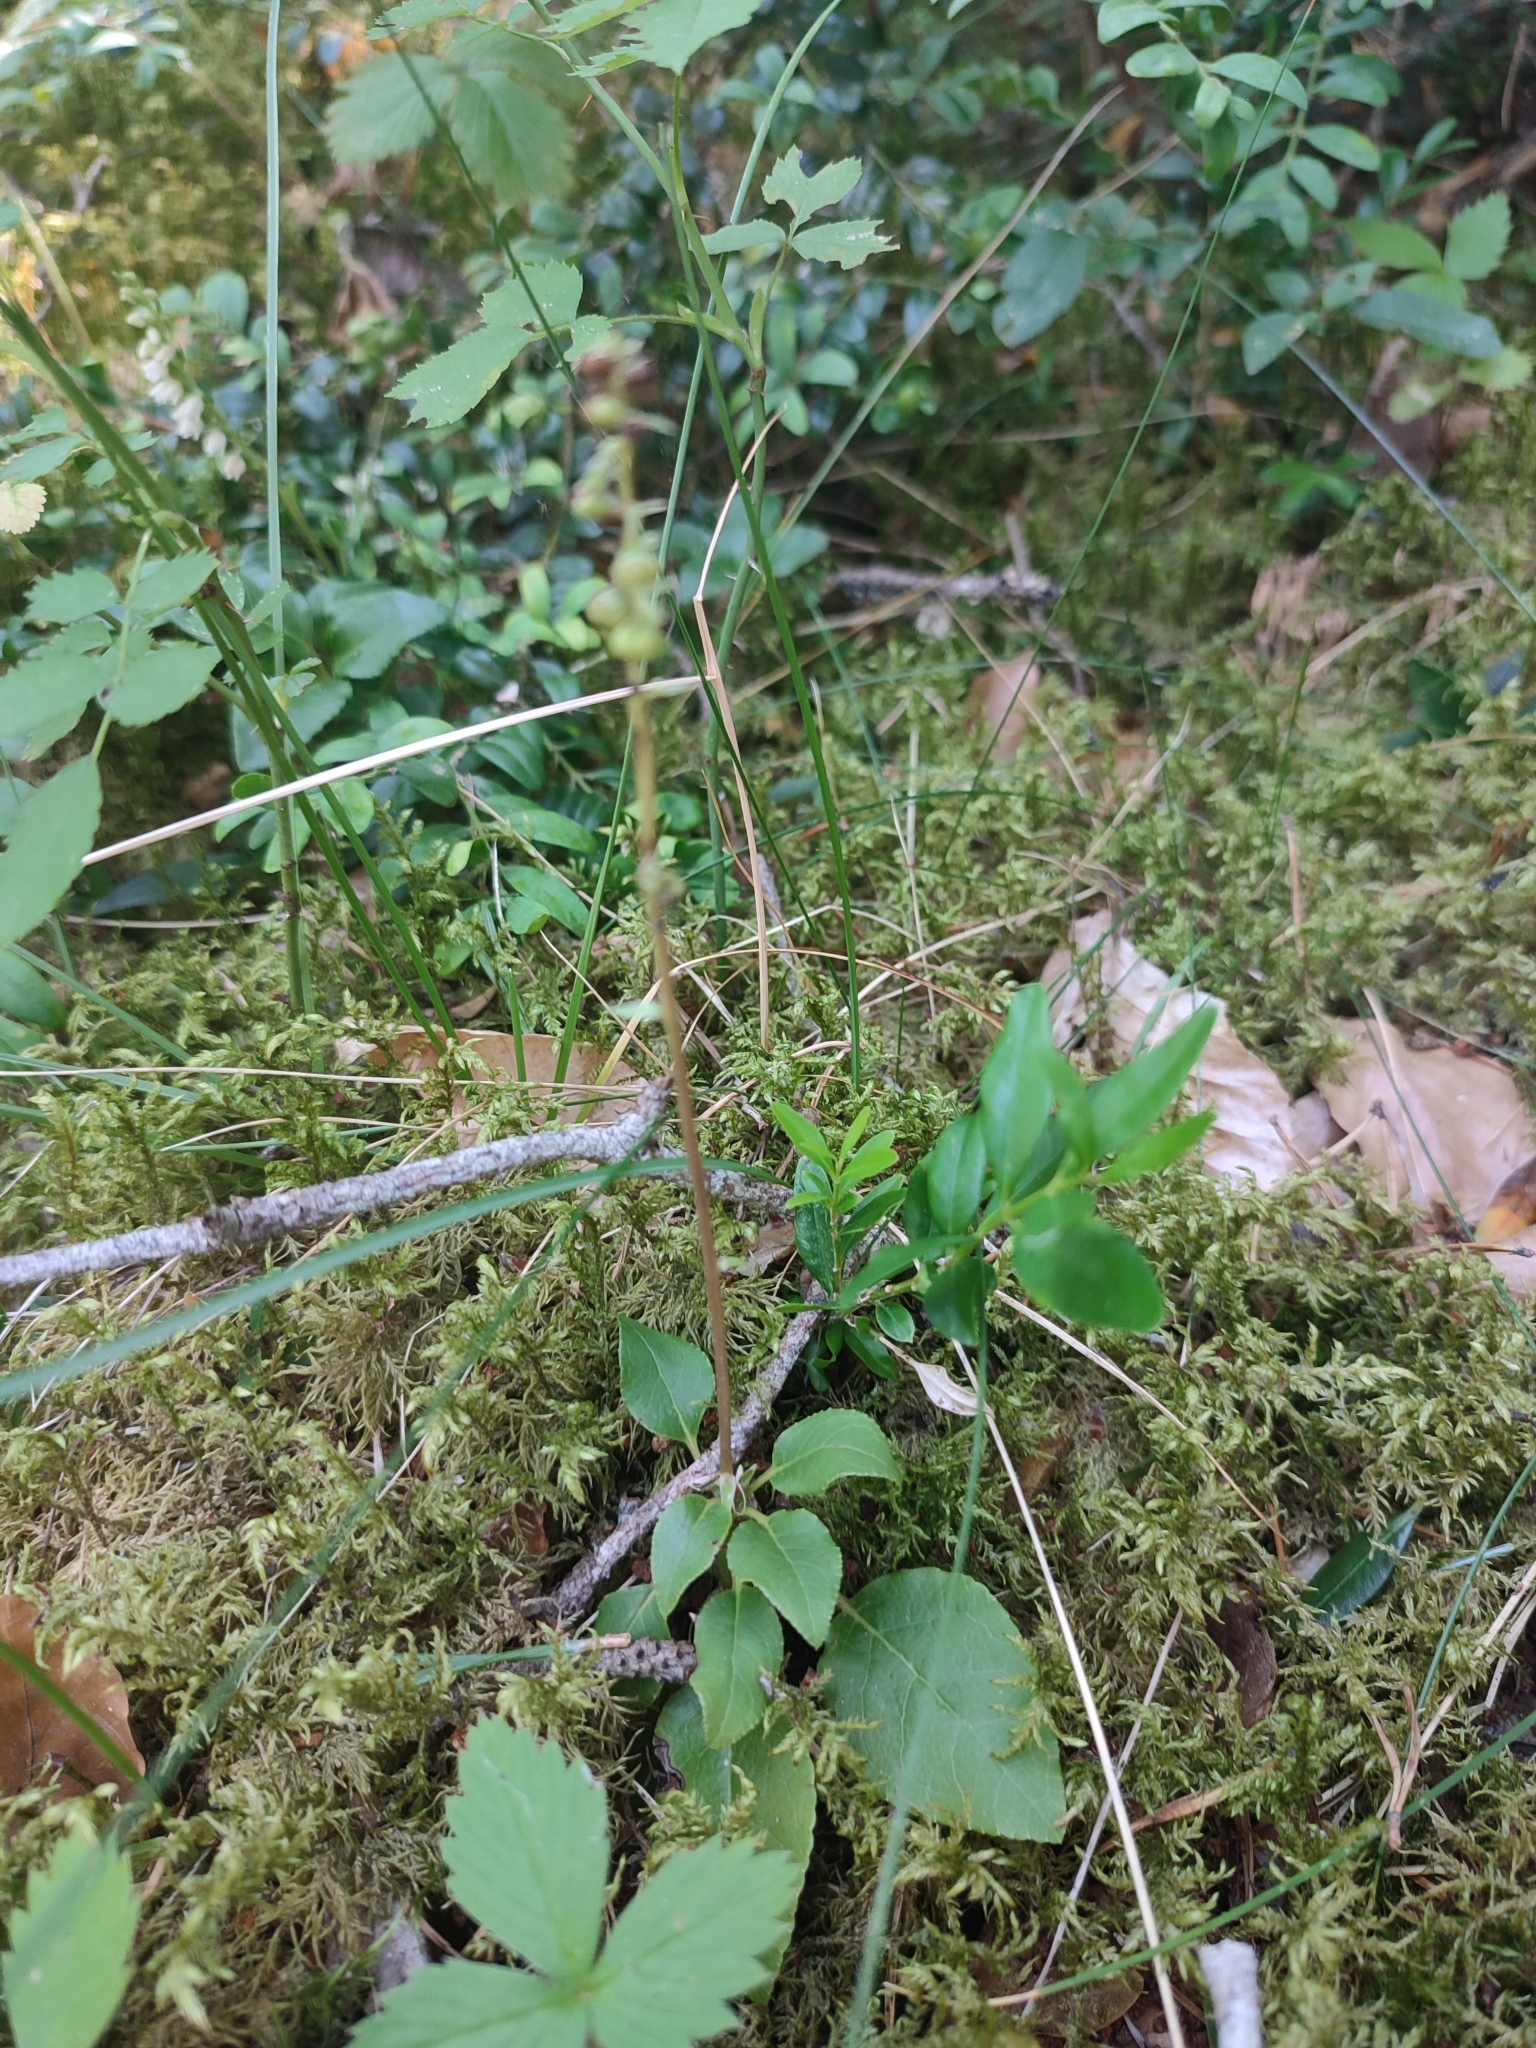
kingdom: Plantae
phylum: Tracheophyta
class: Magnoliopsida
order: Ericales
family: Ericaceae
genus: Orthilia
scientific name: Orthilia secunda
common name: One-sided orthilia
